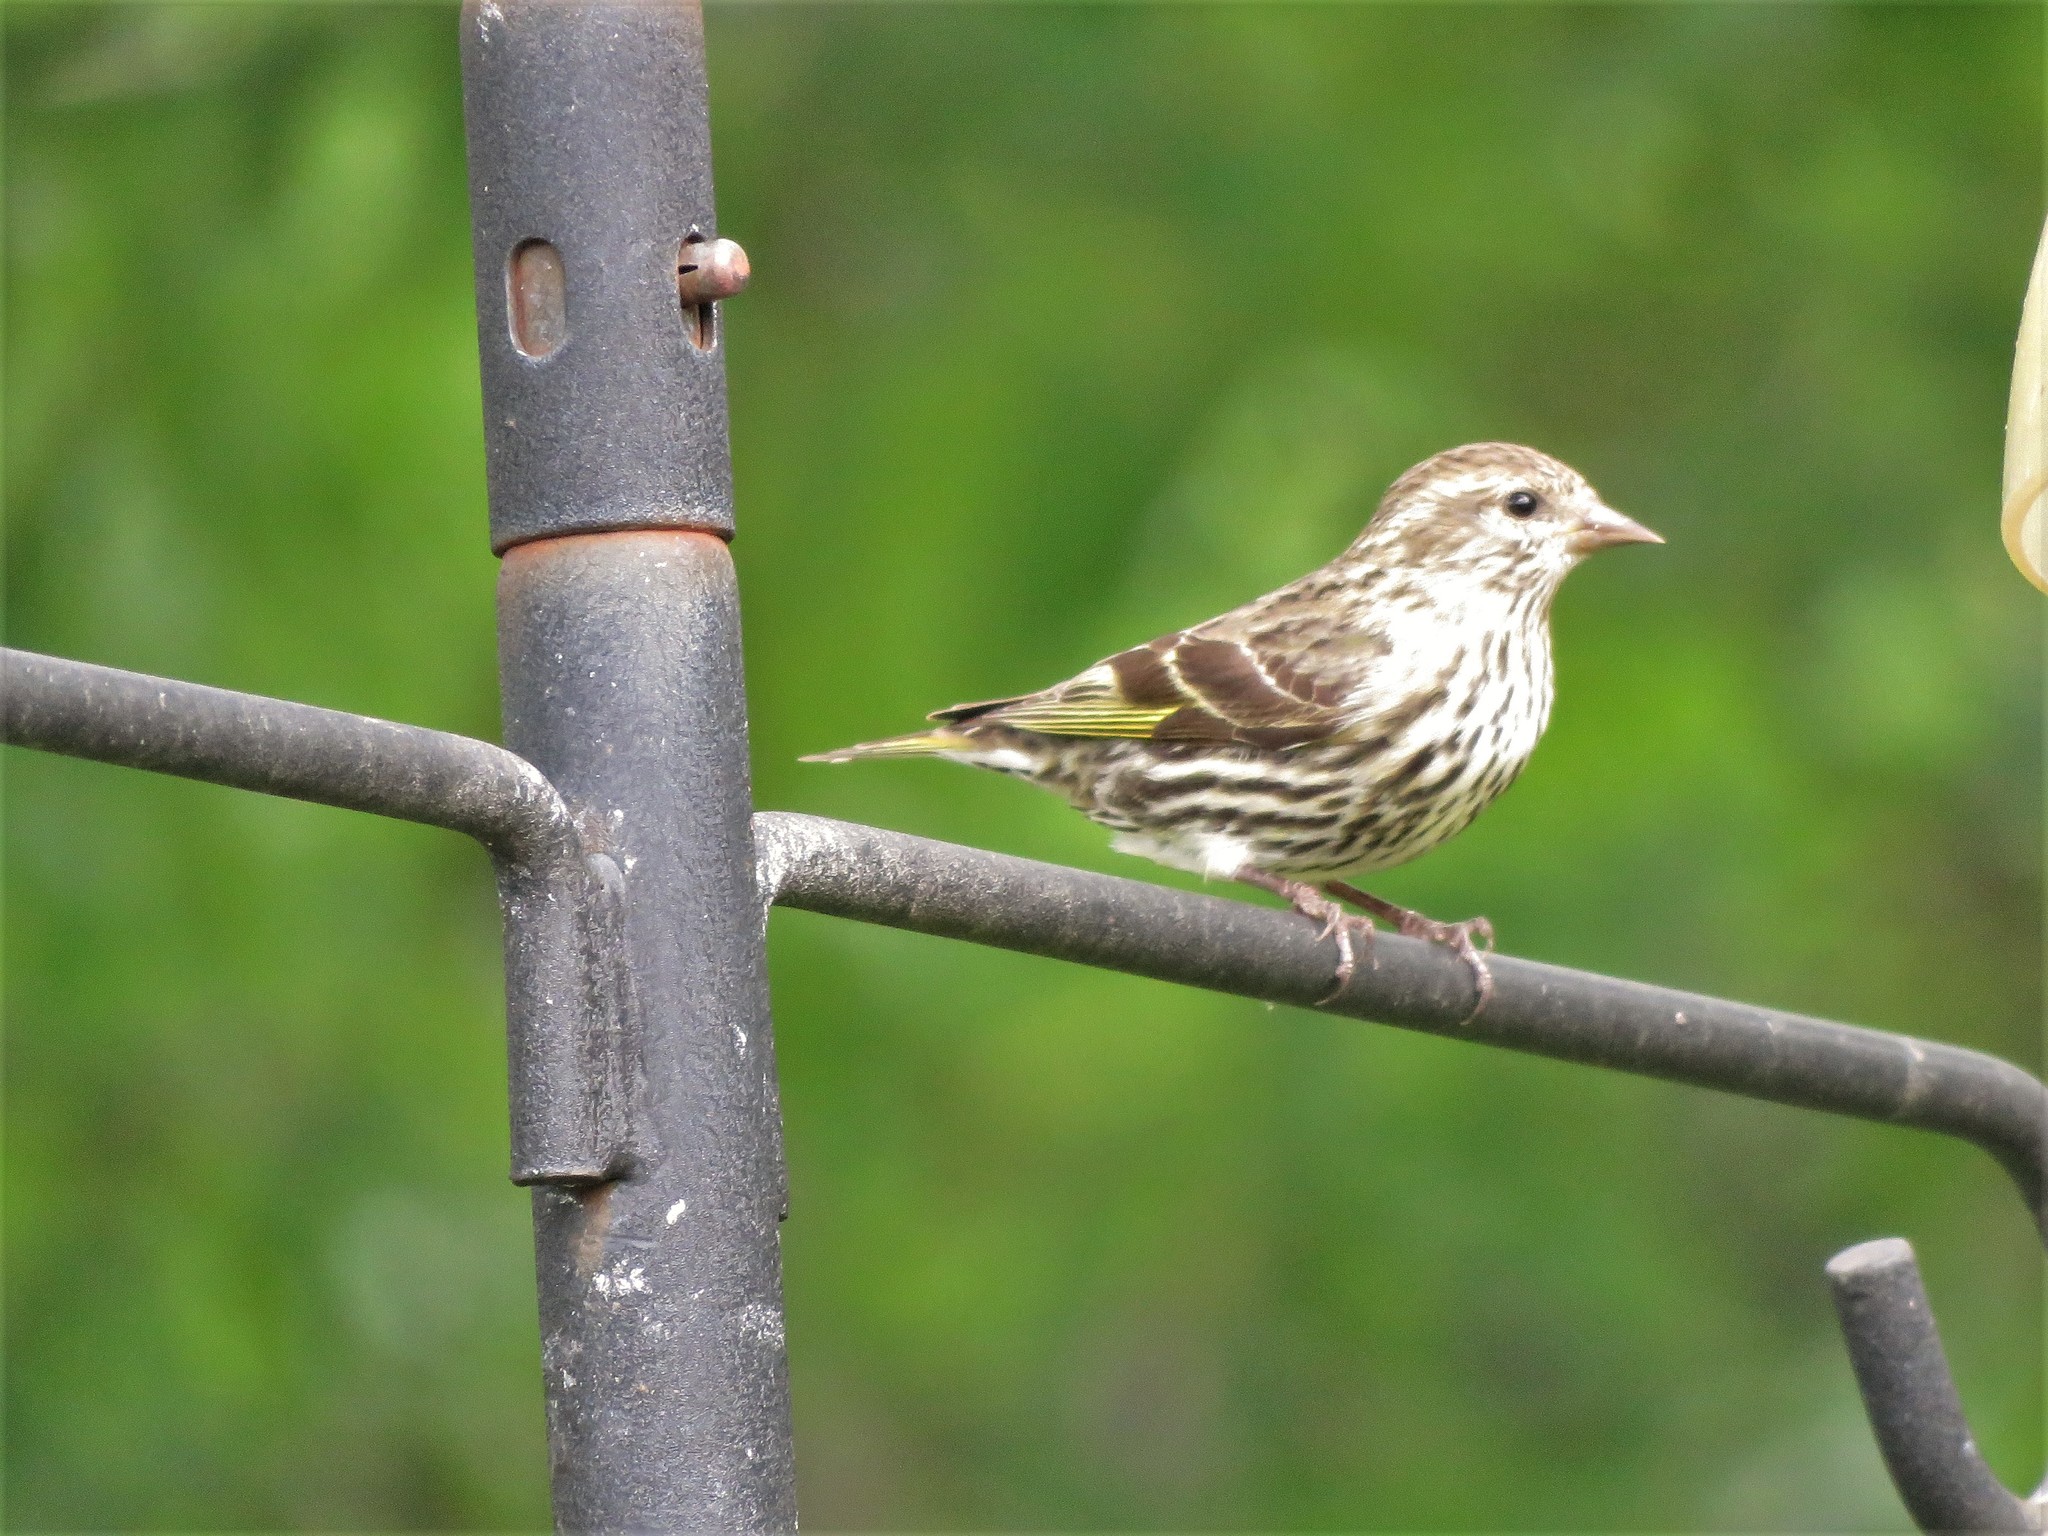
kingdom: Animalia
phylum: Chordata
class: Aves
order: Passeriformes
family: Fringillidae
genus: Spinus
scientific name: Spinus pinus
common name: Pine siskin
